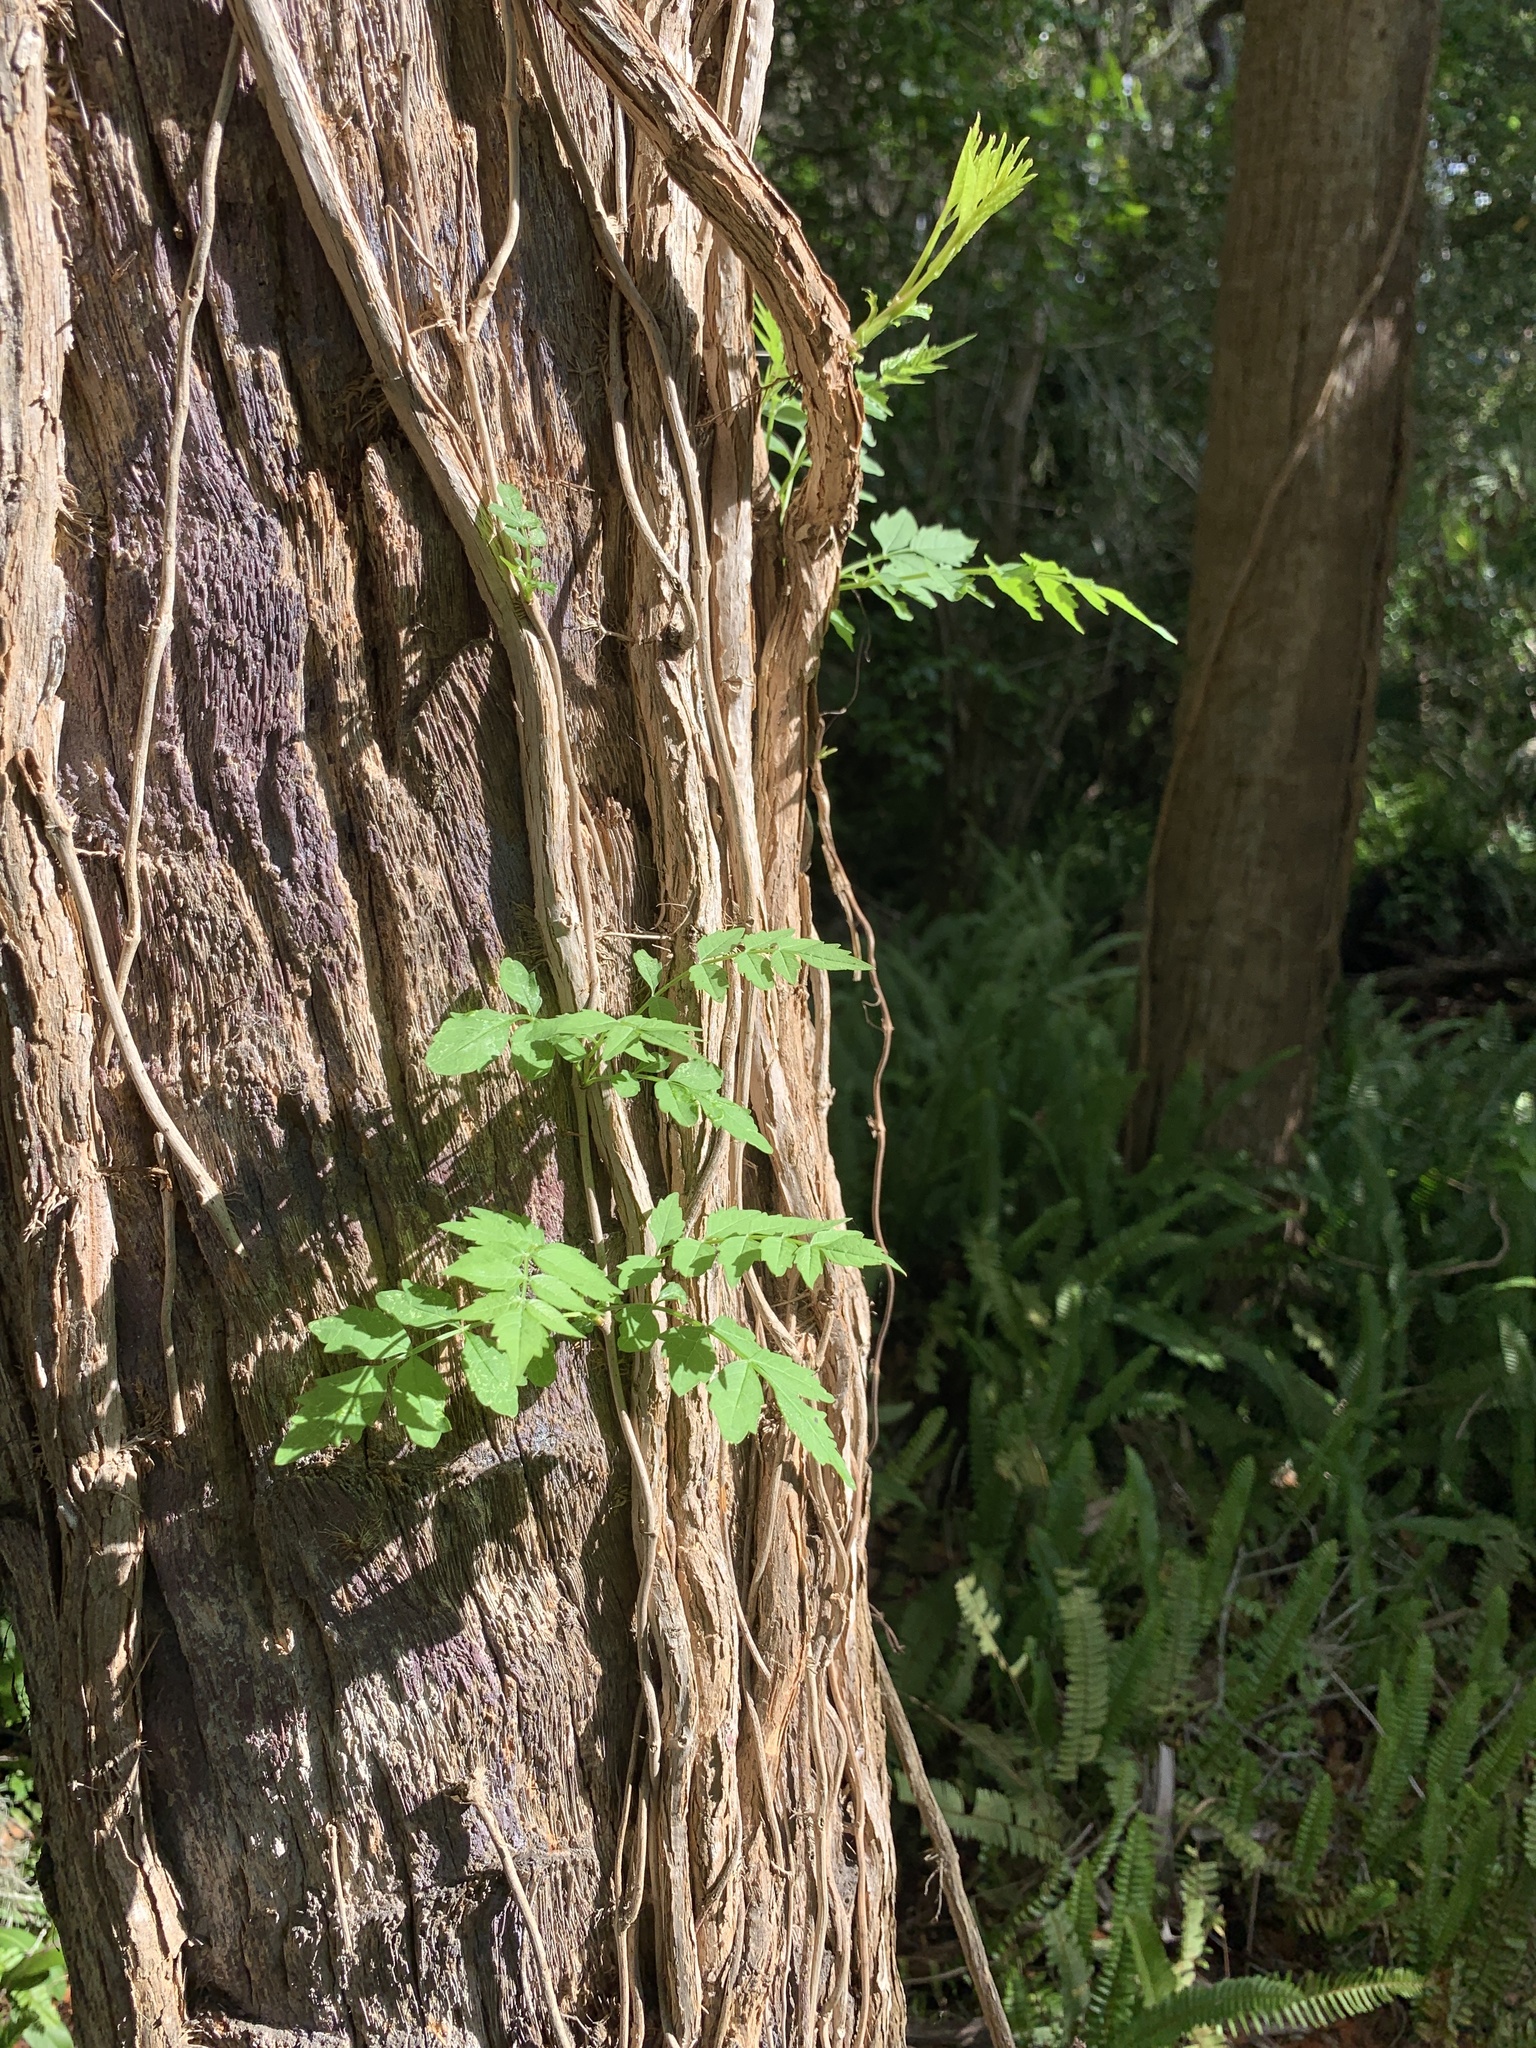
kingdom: Plantae
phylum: Tracheophyta
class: Magnoliopsida
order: Lamiales
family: Bignoniaceae
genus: Campsis
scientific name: Campsis radicans
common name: Trumpet-creeper
